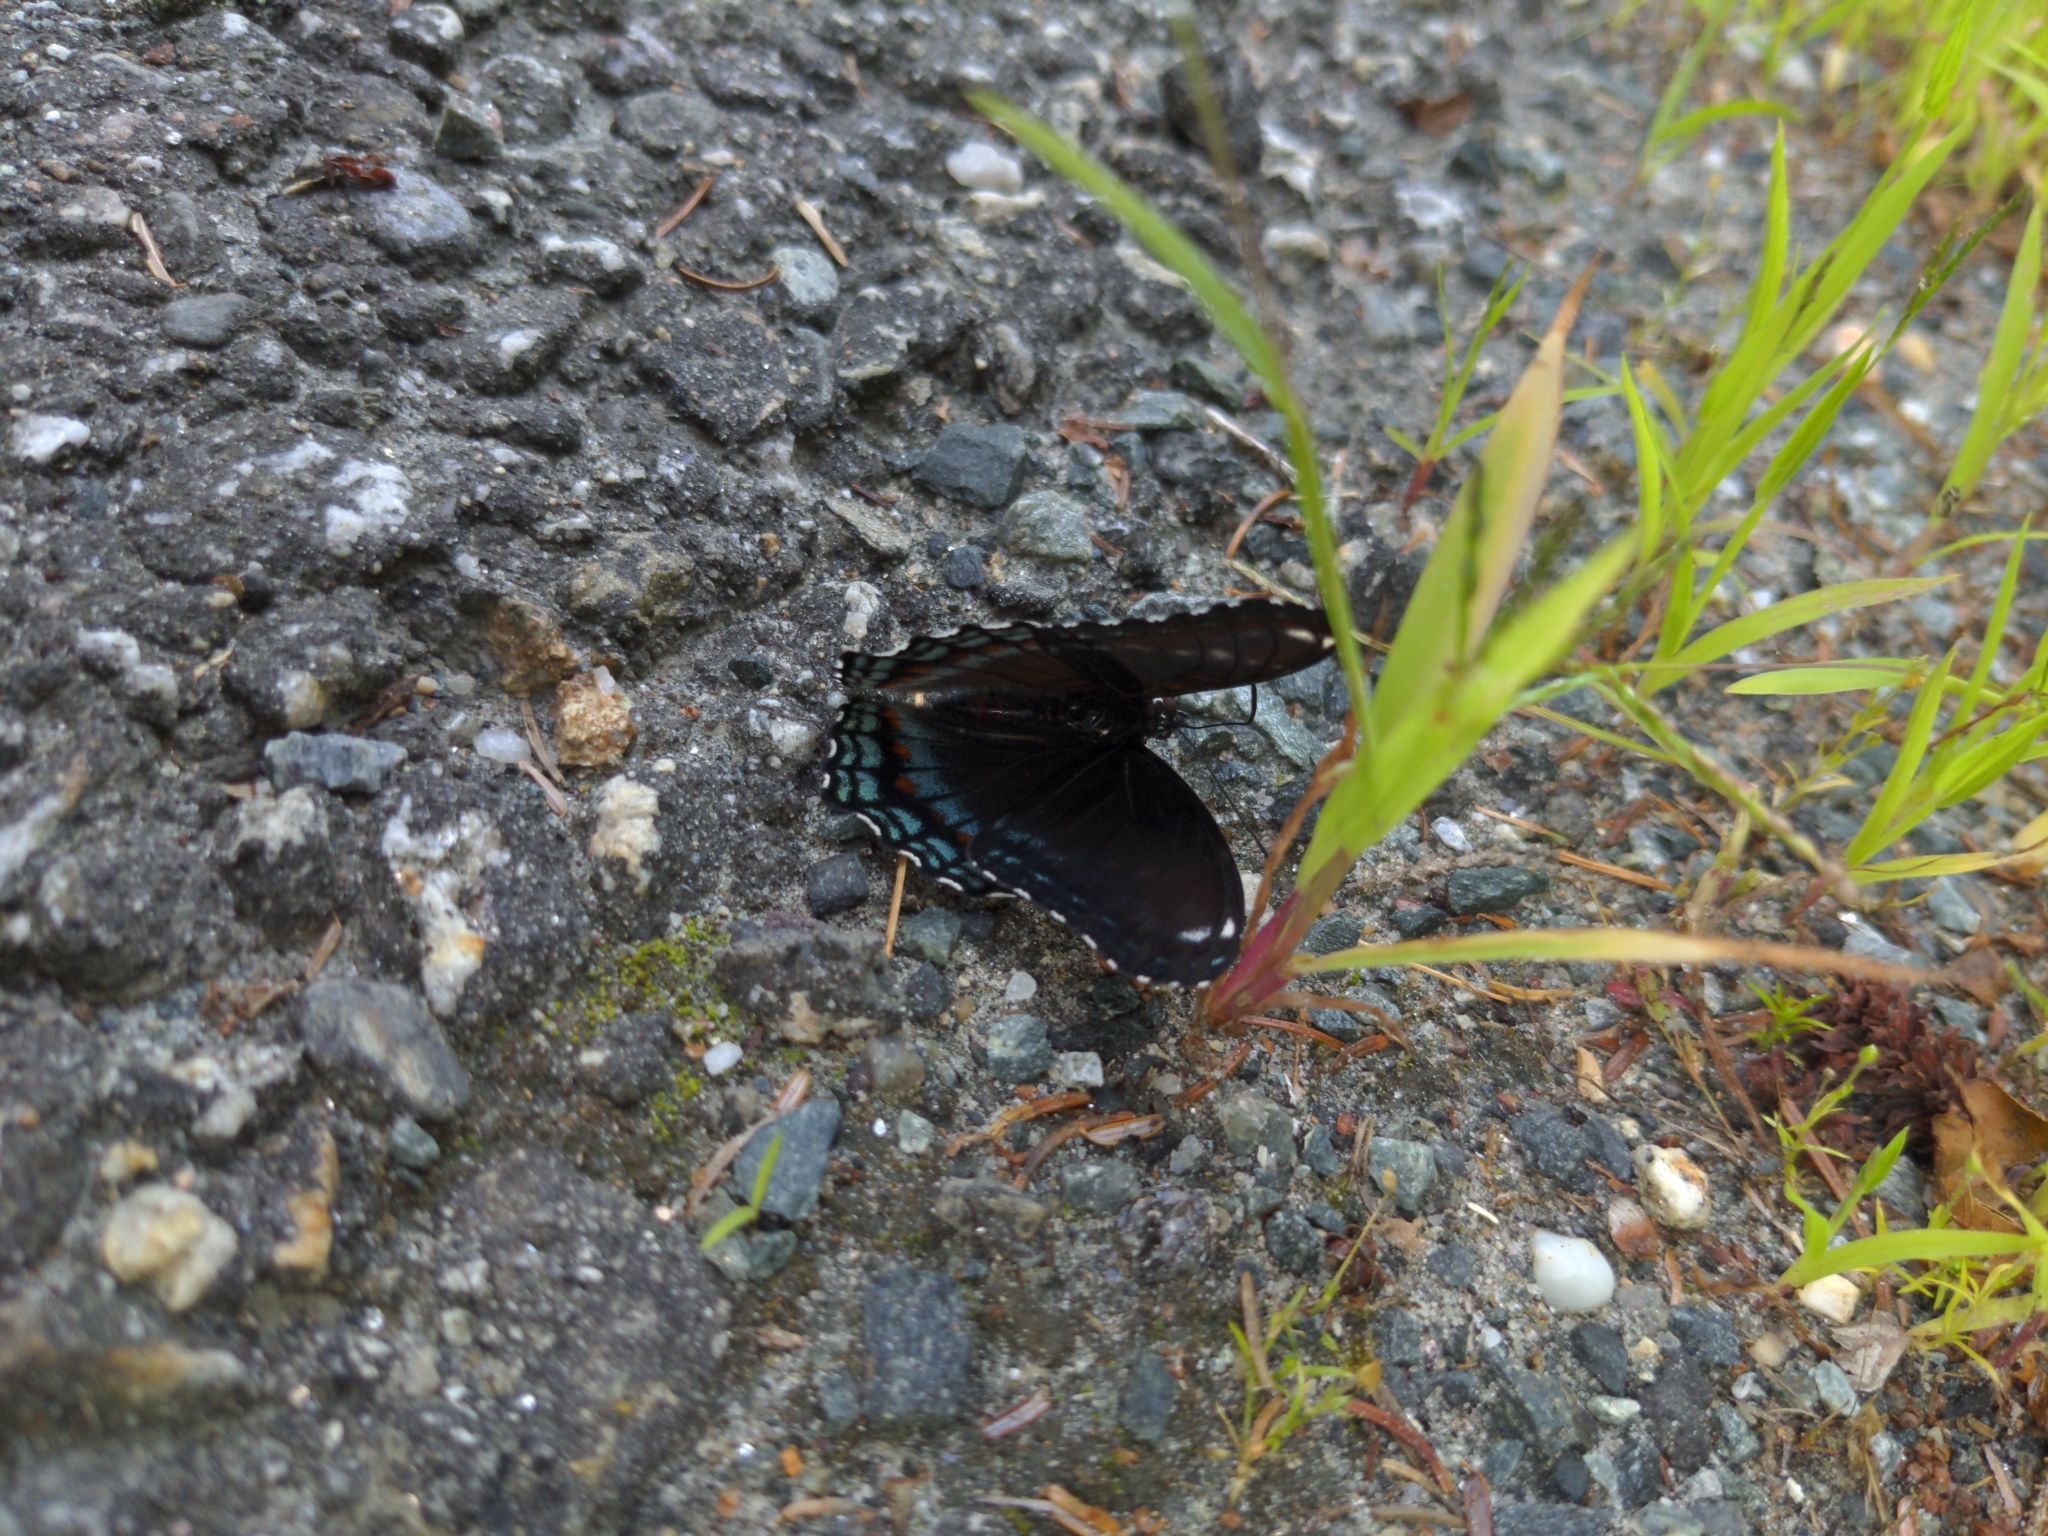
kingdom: Animalia
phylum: Arthropoda
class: Insecta
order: Lepidoptera
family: Nymphalidae
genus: Limenitis
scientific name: Limenitis
